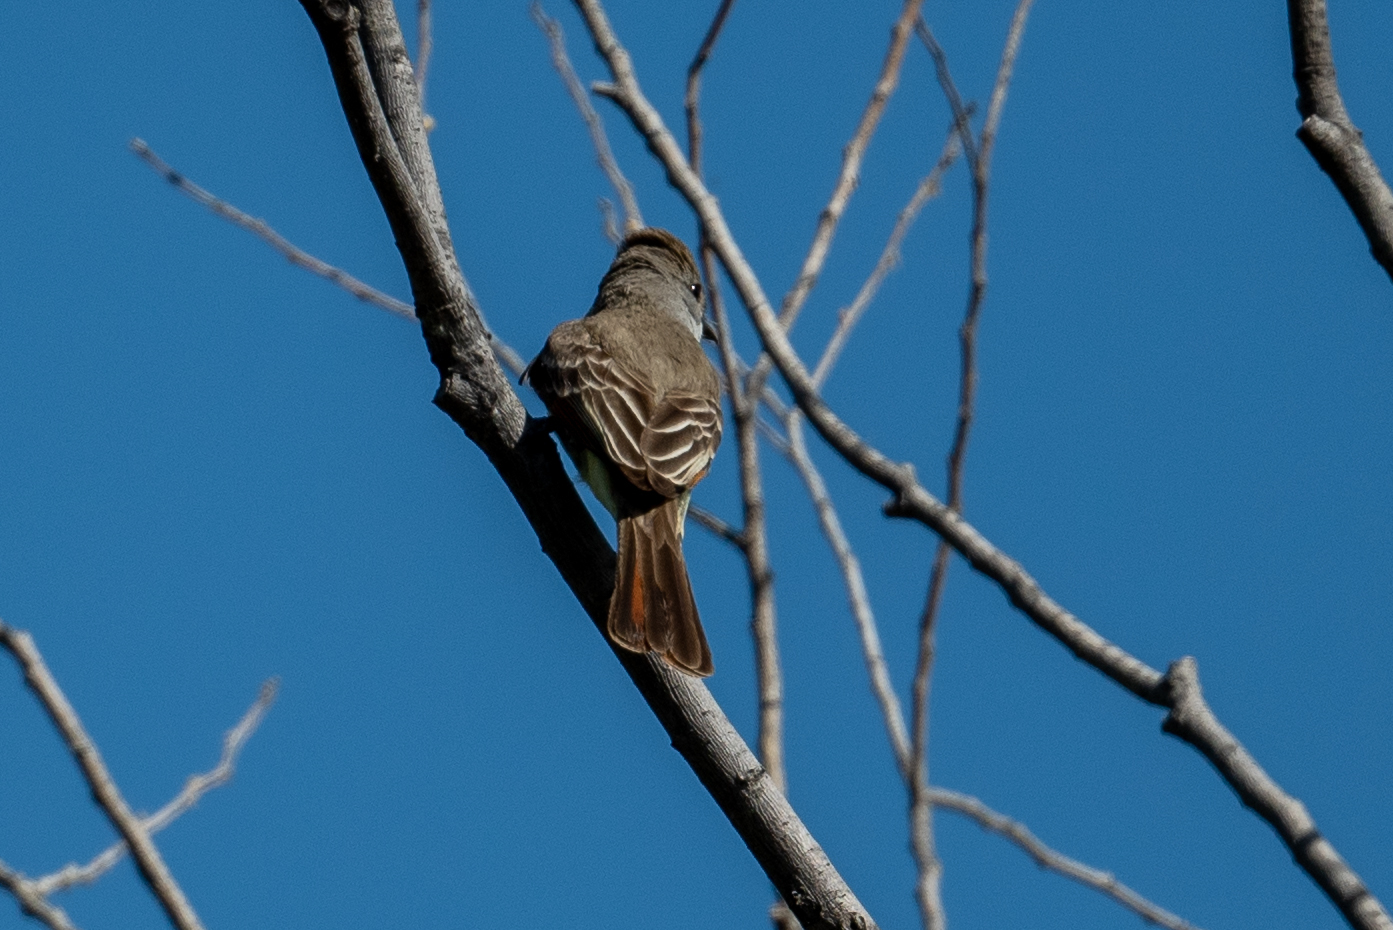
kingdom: Animalia
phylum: Chordata
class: Aves
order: Passeriformes
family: Tyrannidae
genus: Myiarchus
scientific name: Myiarchus cinerascens
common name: Ash-throated flycatcher
